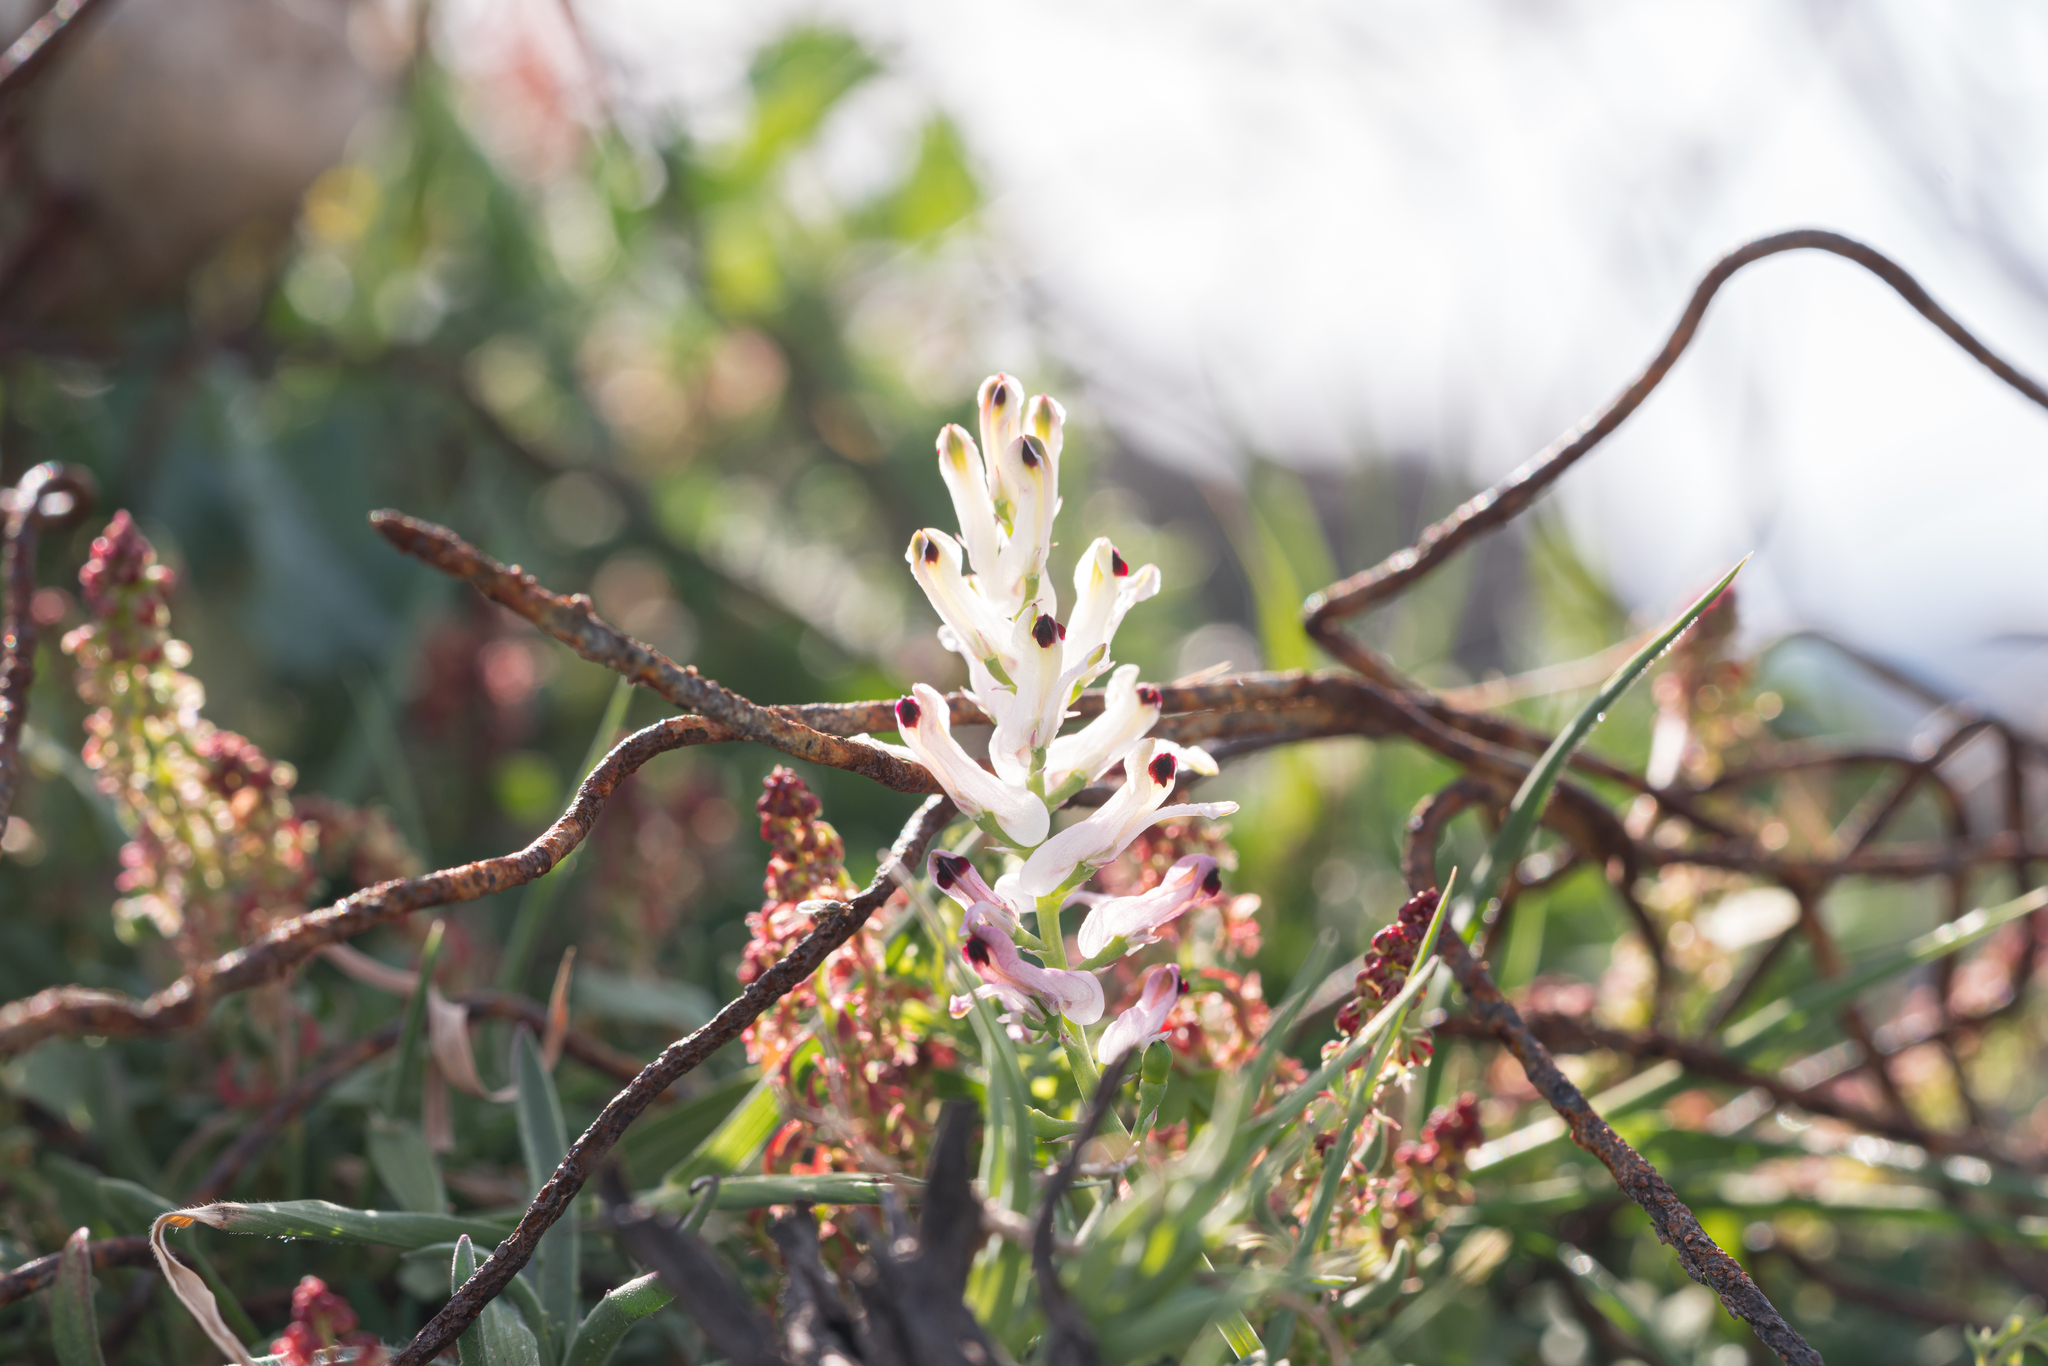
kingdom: Plantae
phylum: Tracheophyta
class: Magnoliopsida
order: Ranunculales
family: Papaveraceae
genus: Fumaria
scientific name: Fumaria judaica
